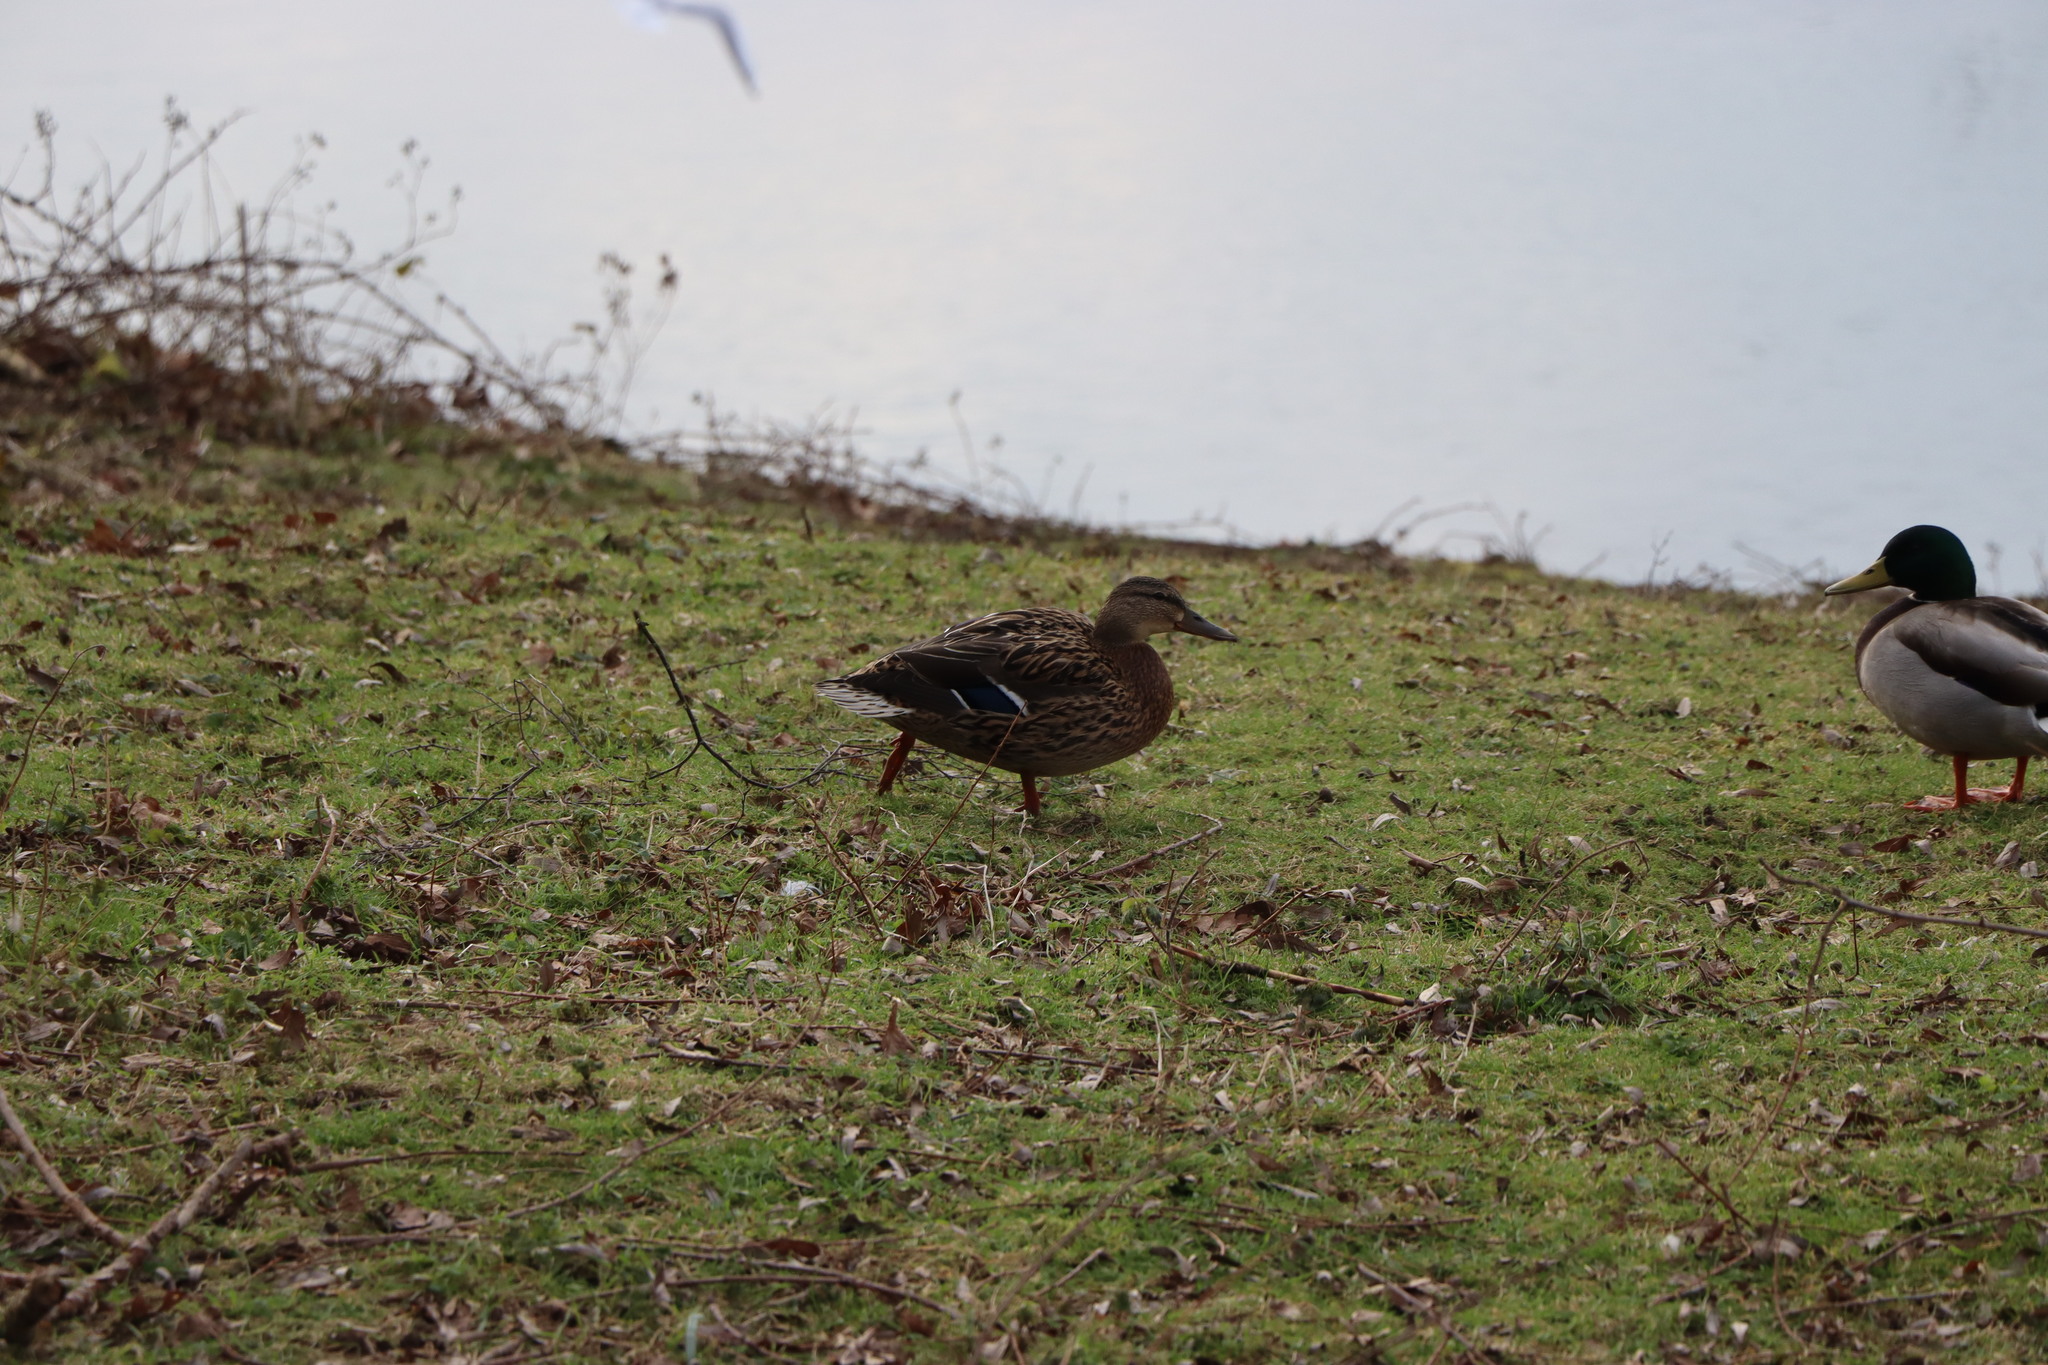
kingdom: Animalia
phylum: Chordata
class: Aves
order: Anseriformes
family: Anatidae
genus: Anas
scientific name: Anas platyrhynchos
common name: Mallard
